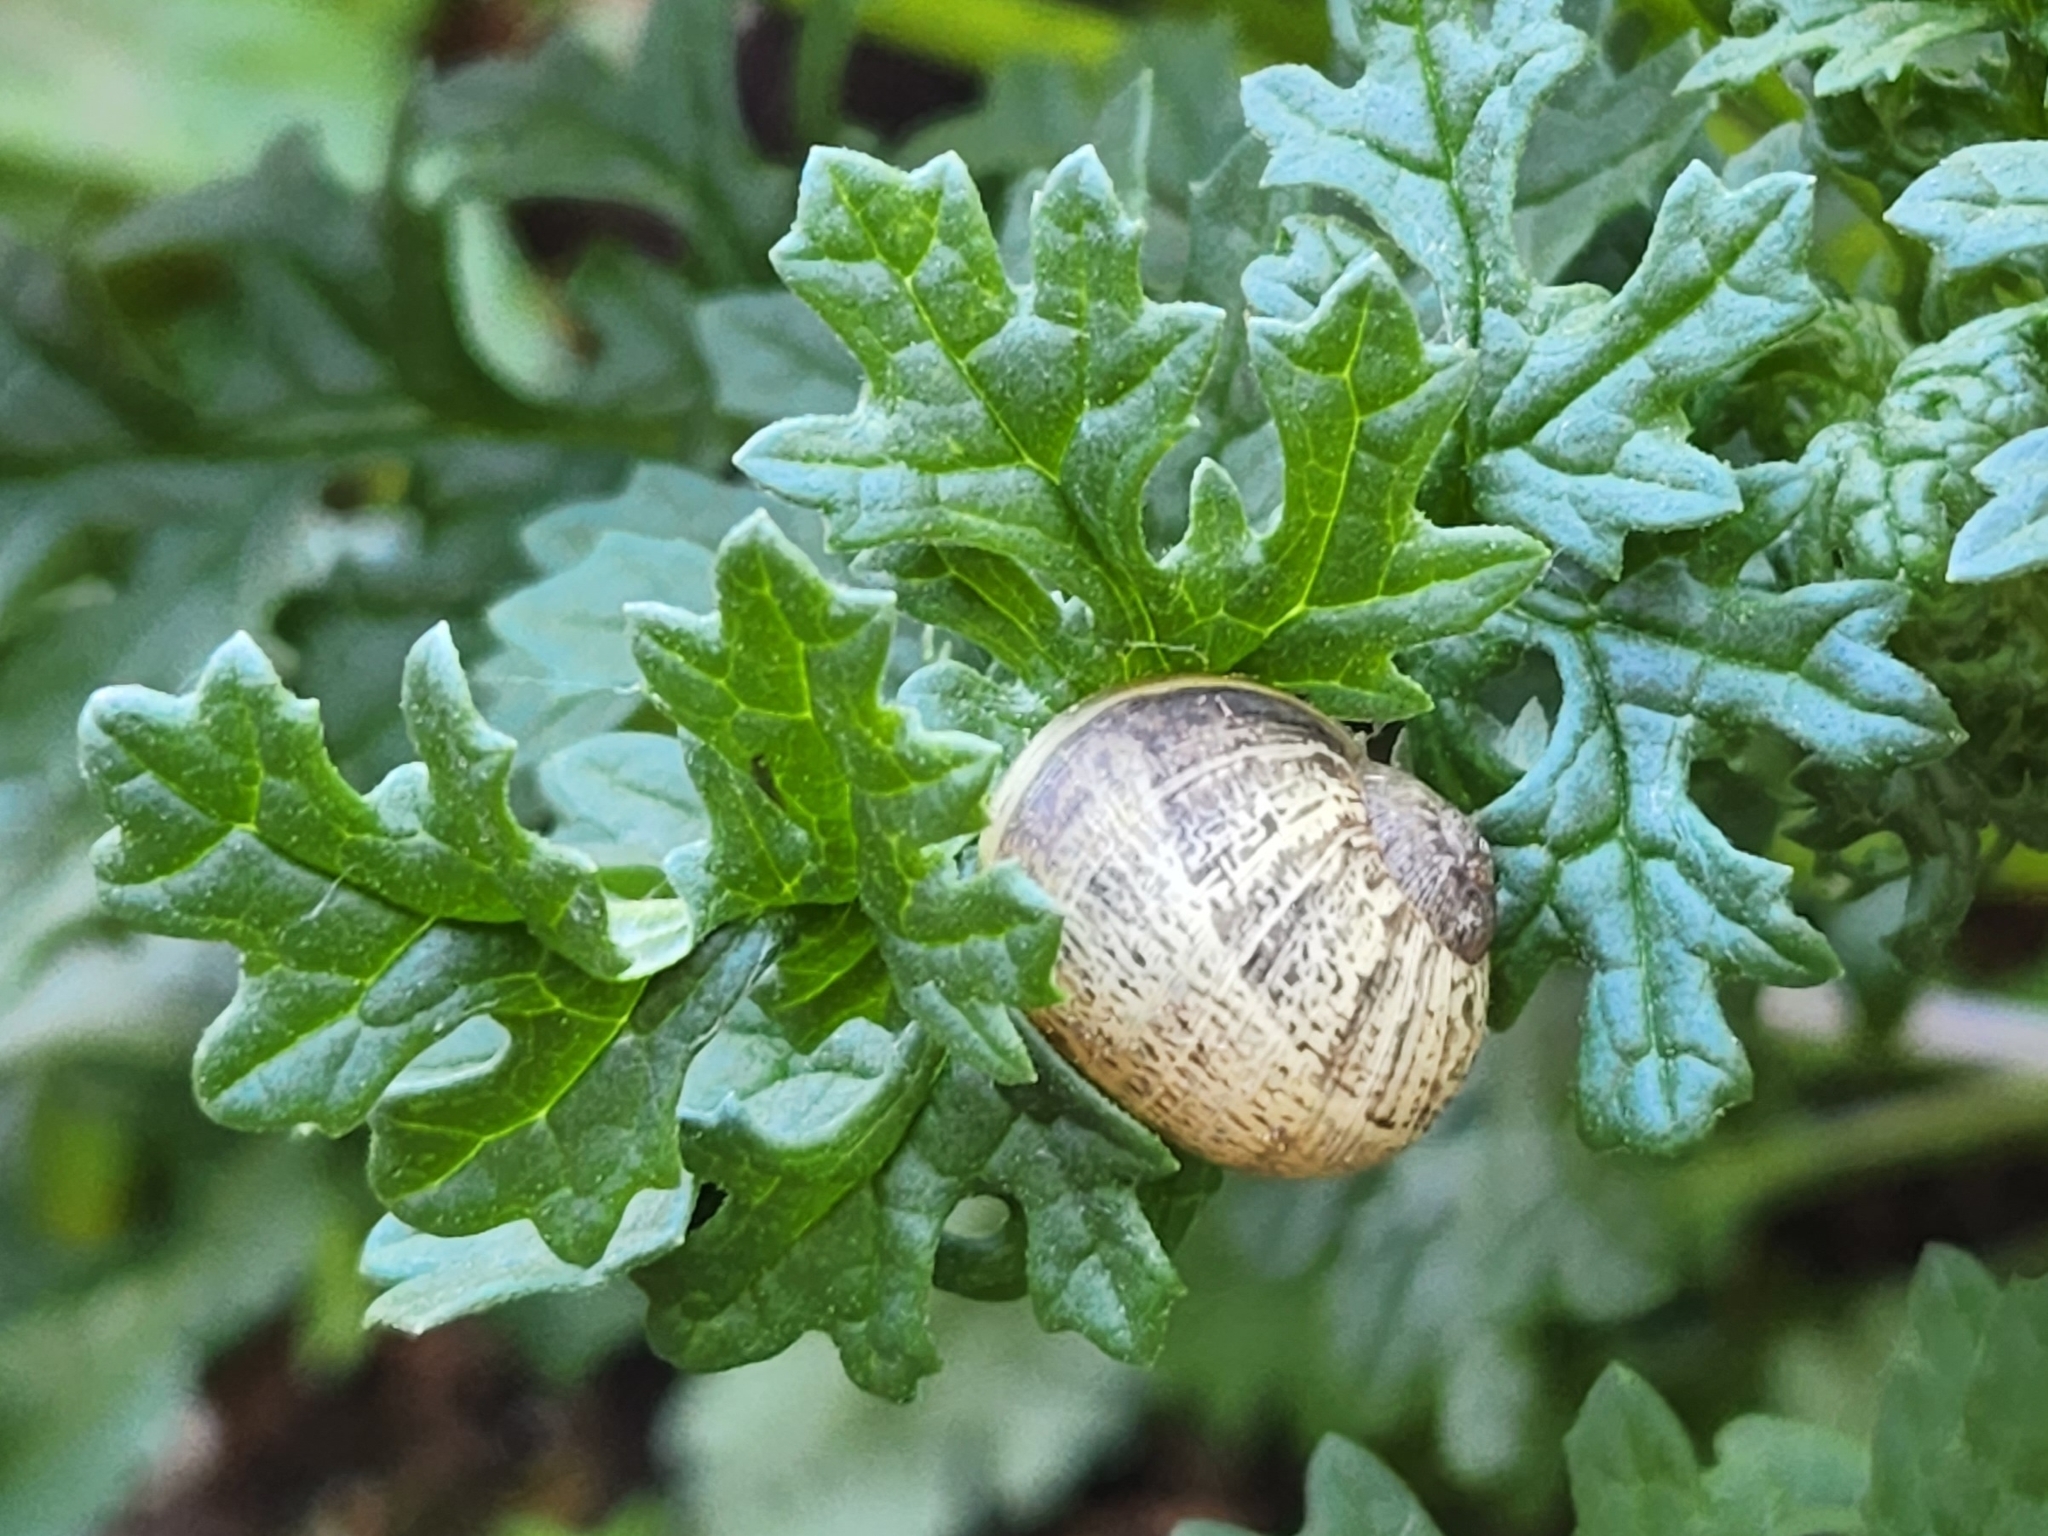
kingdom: Animalia
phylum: Mollusca
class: Gastropoda
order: Stylommatophora
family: Helicidae
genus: Cornu
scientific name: Cornu aspersum
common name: Brown garden snail
